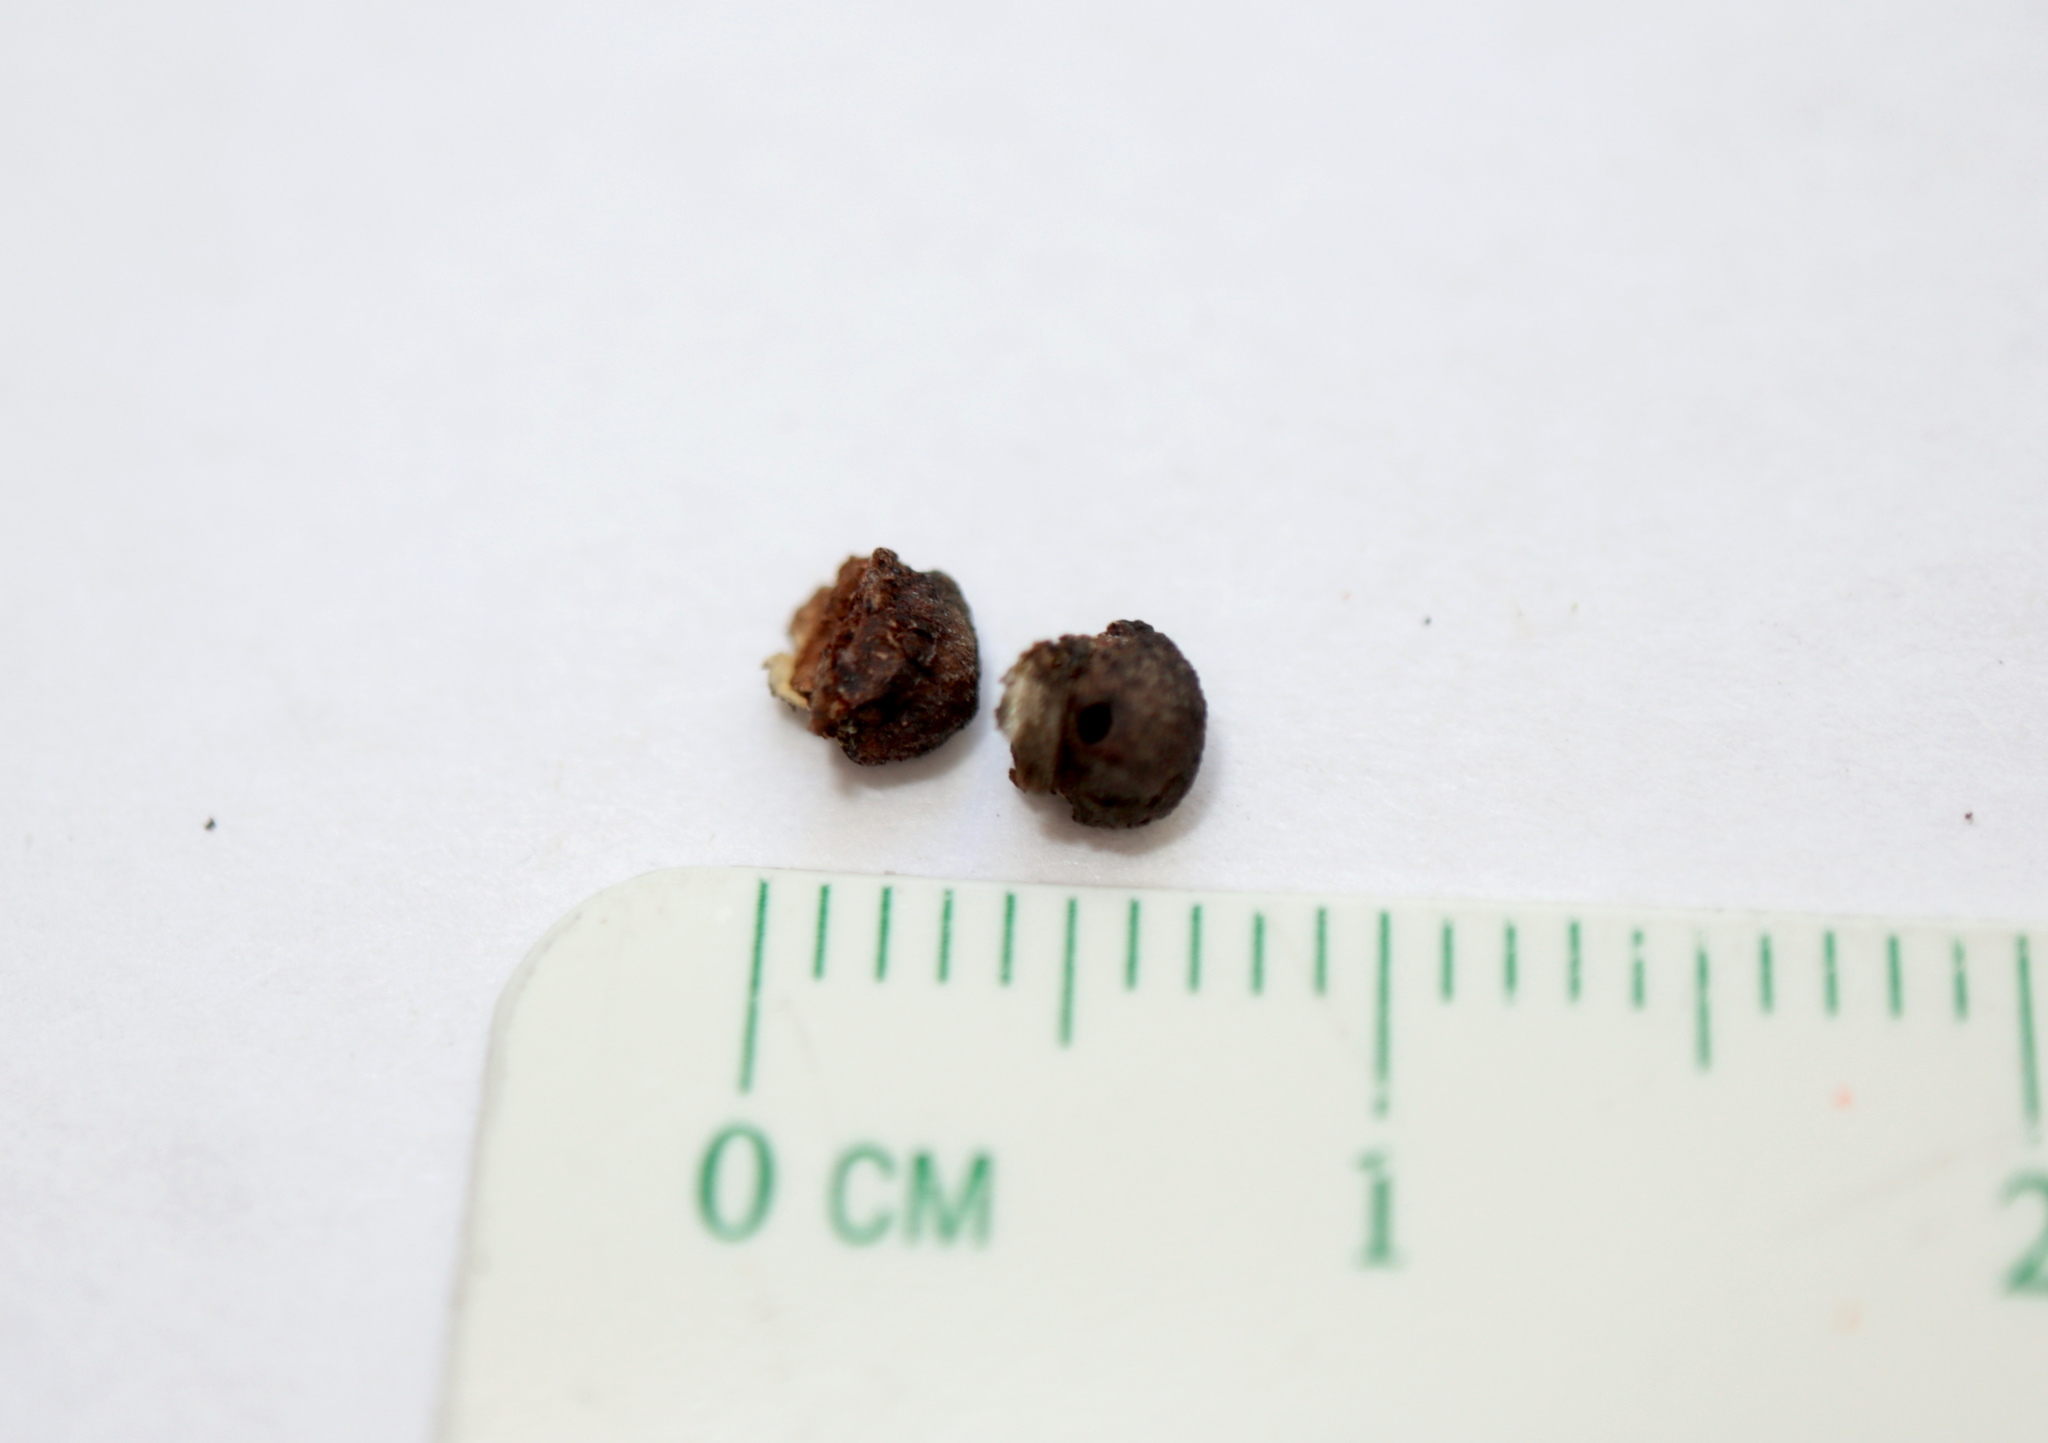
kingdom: Animalia
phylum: Arthropoda
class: Insecta
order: Hymenoptera
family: Cynipidae
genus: Andricus
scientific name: Andricus
